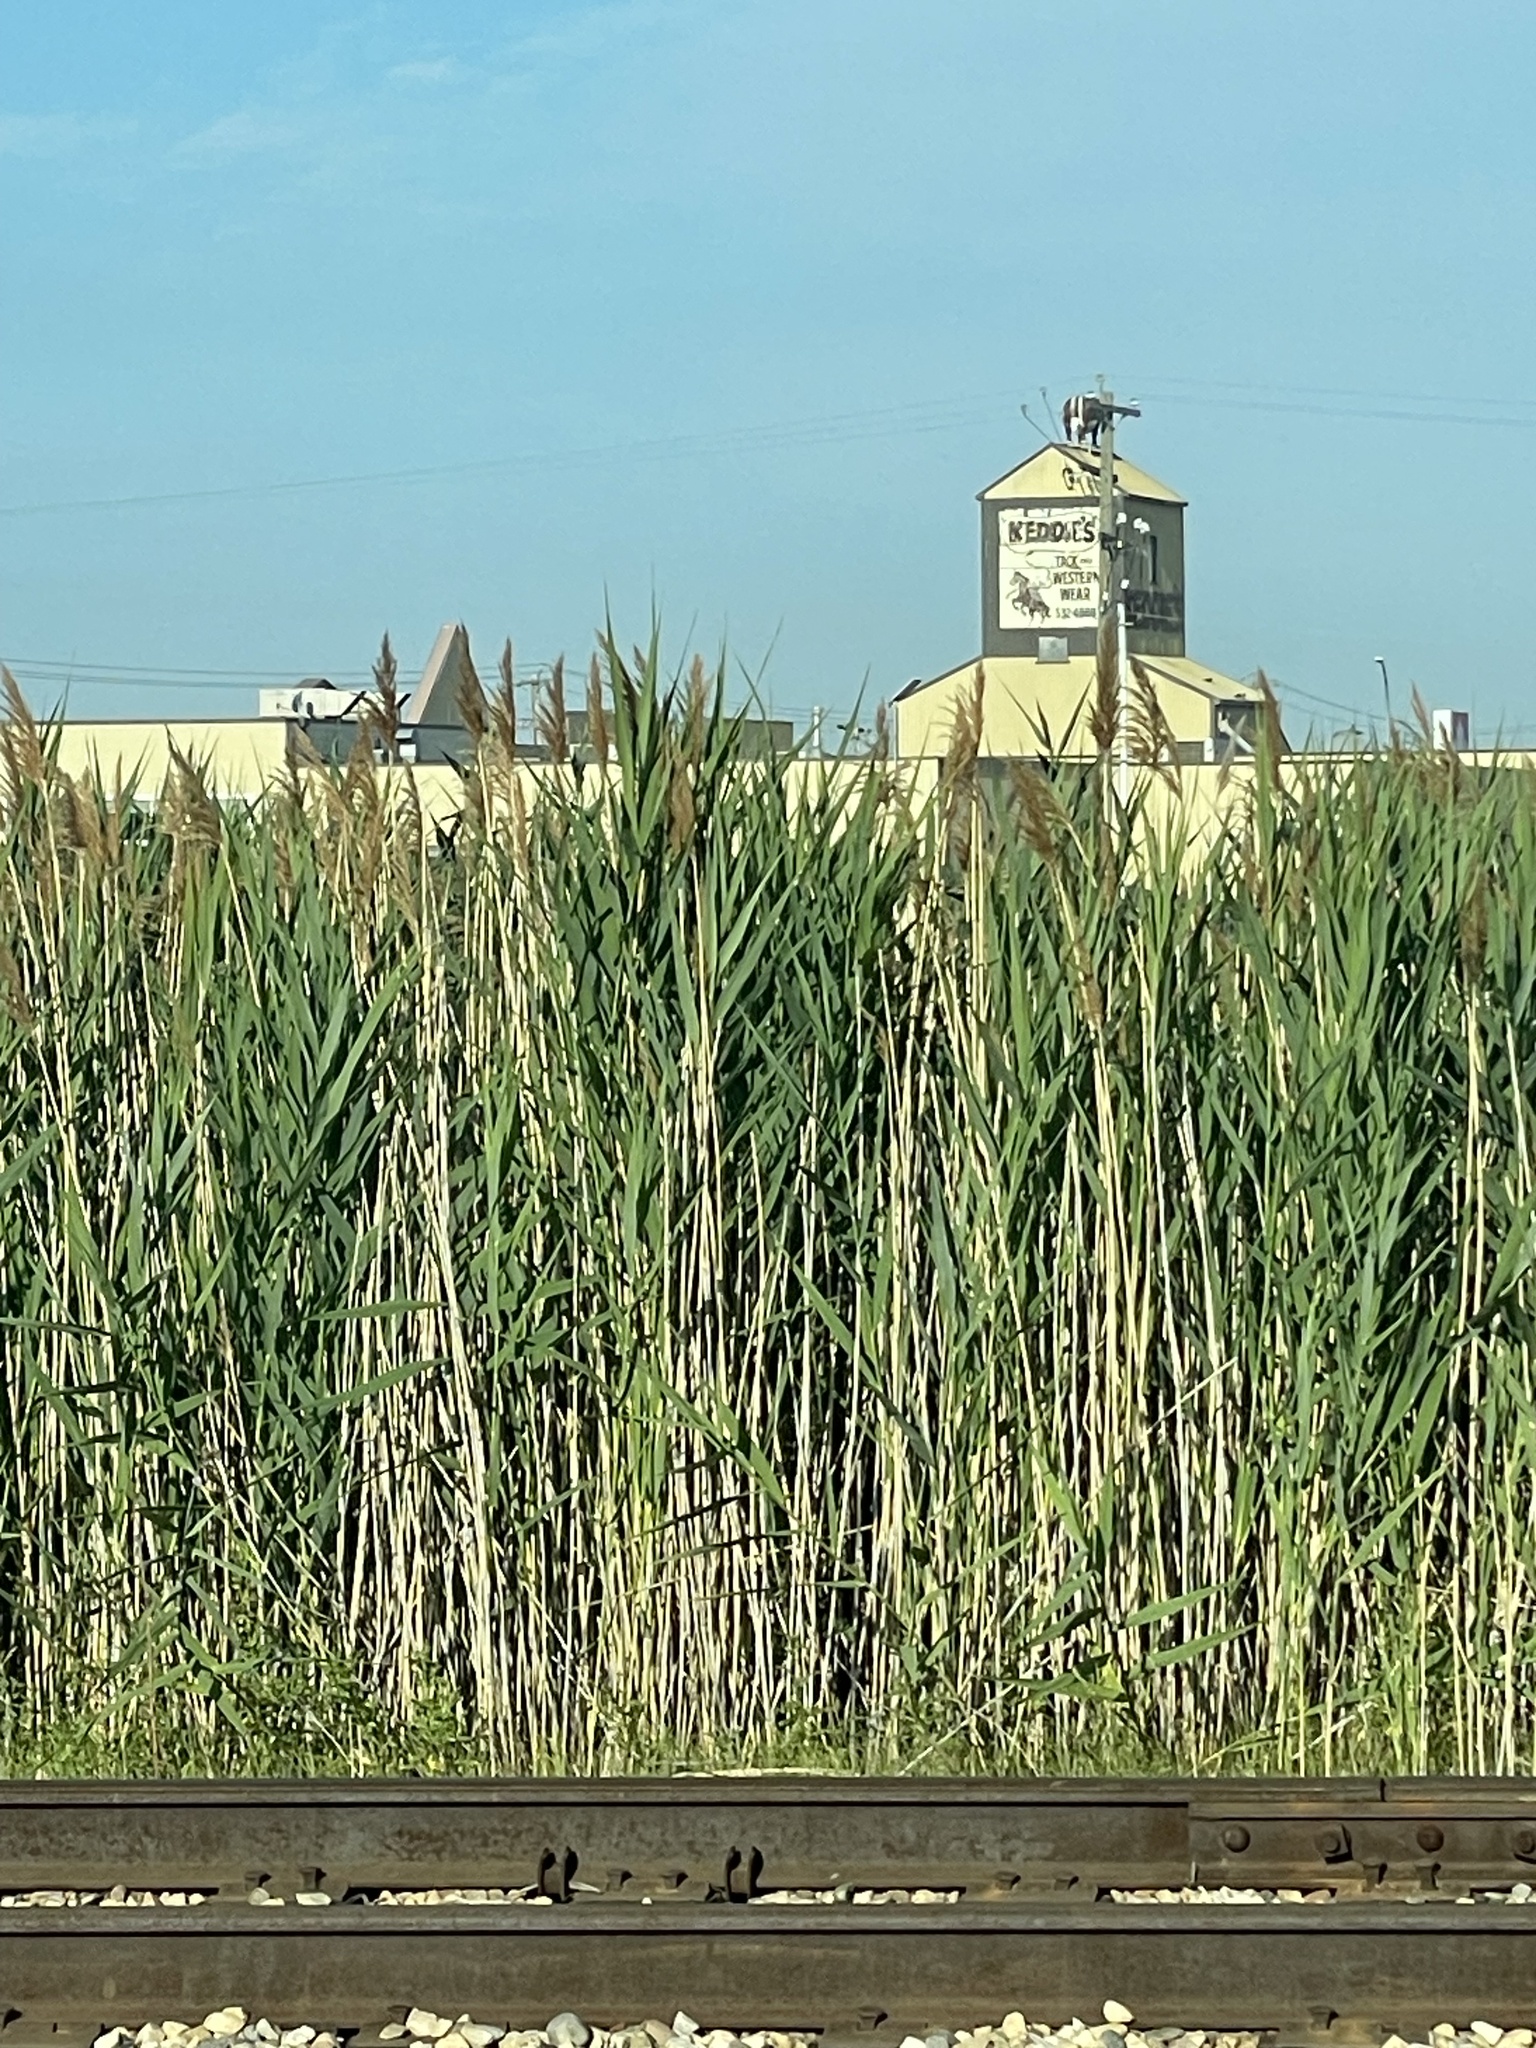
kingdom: Plantae
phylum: Tracheophyta
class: Liliopsida
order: Poales
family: Poaceae
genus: Phragmites
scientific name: Phragmites australis
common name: Common reed
